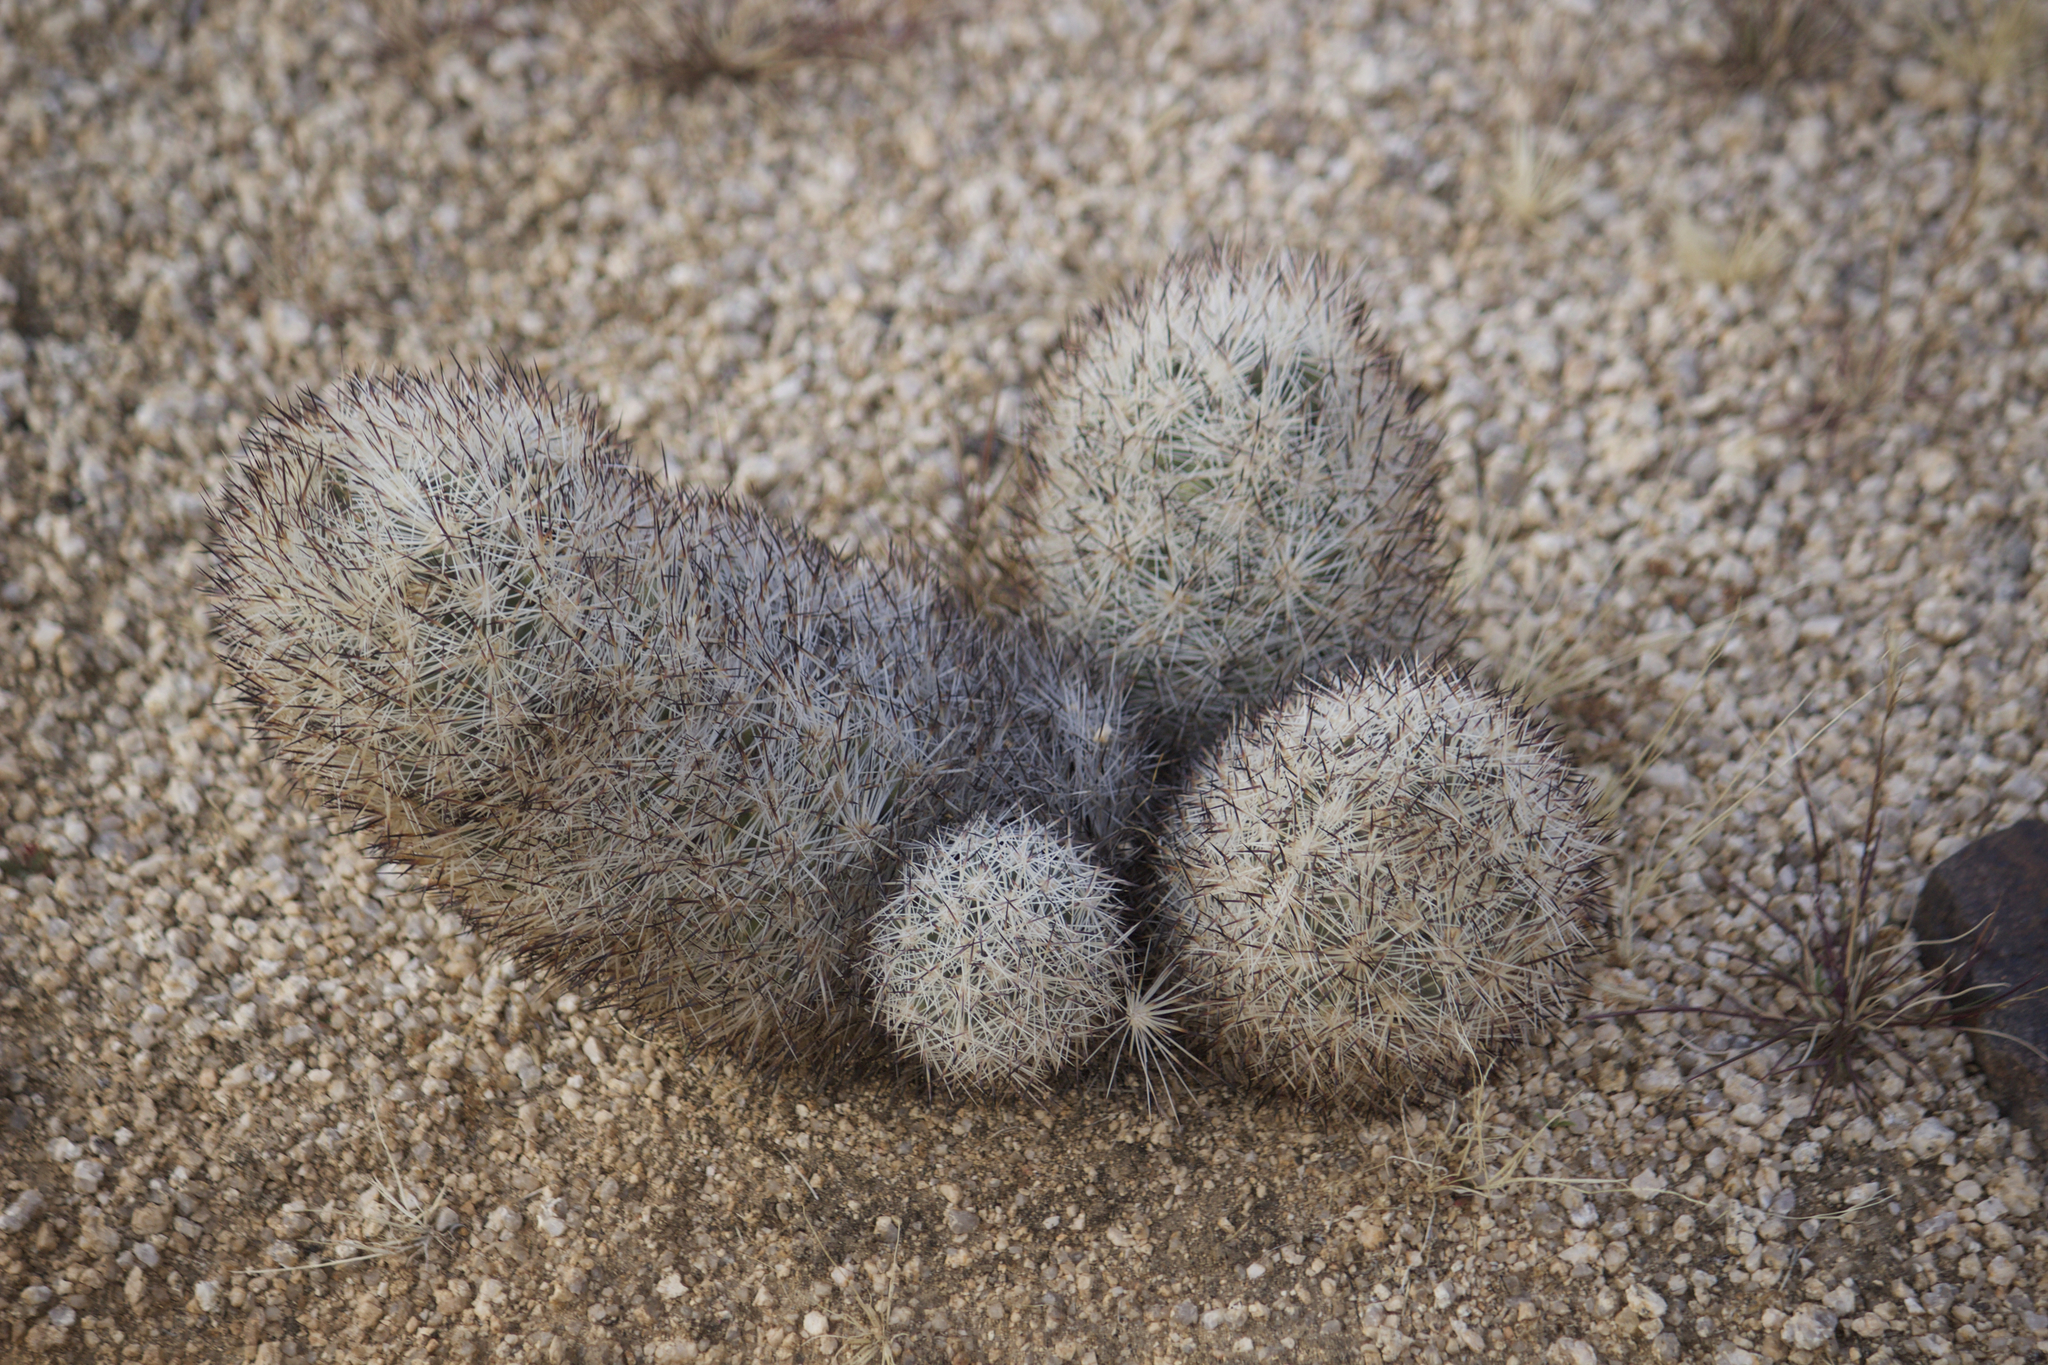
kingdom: Plantae
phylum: Tracheophyta
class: Magnoliopsida
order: Caryophyllales
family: Cactaceae
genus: Pelecyphora
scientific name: Pelecyphora alversonii
